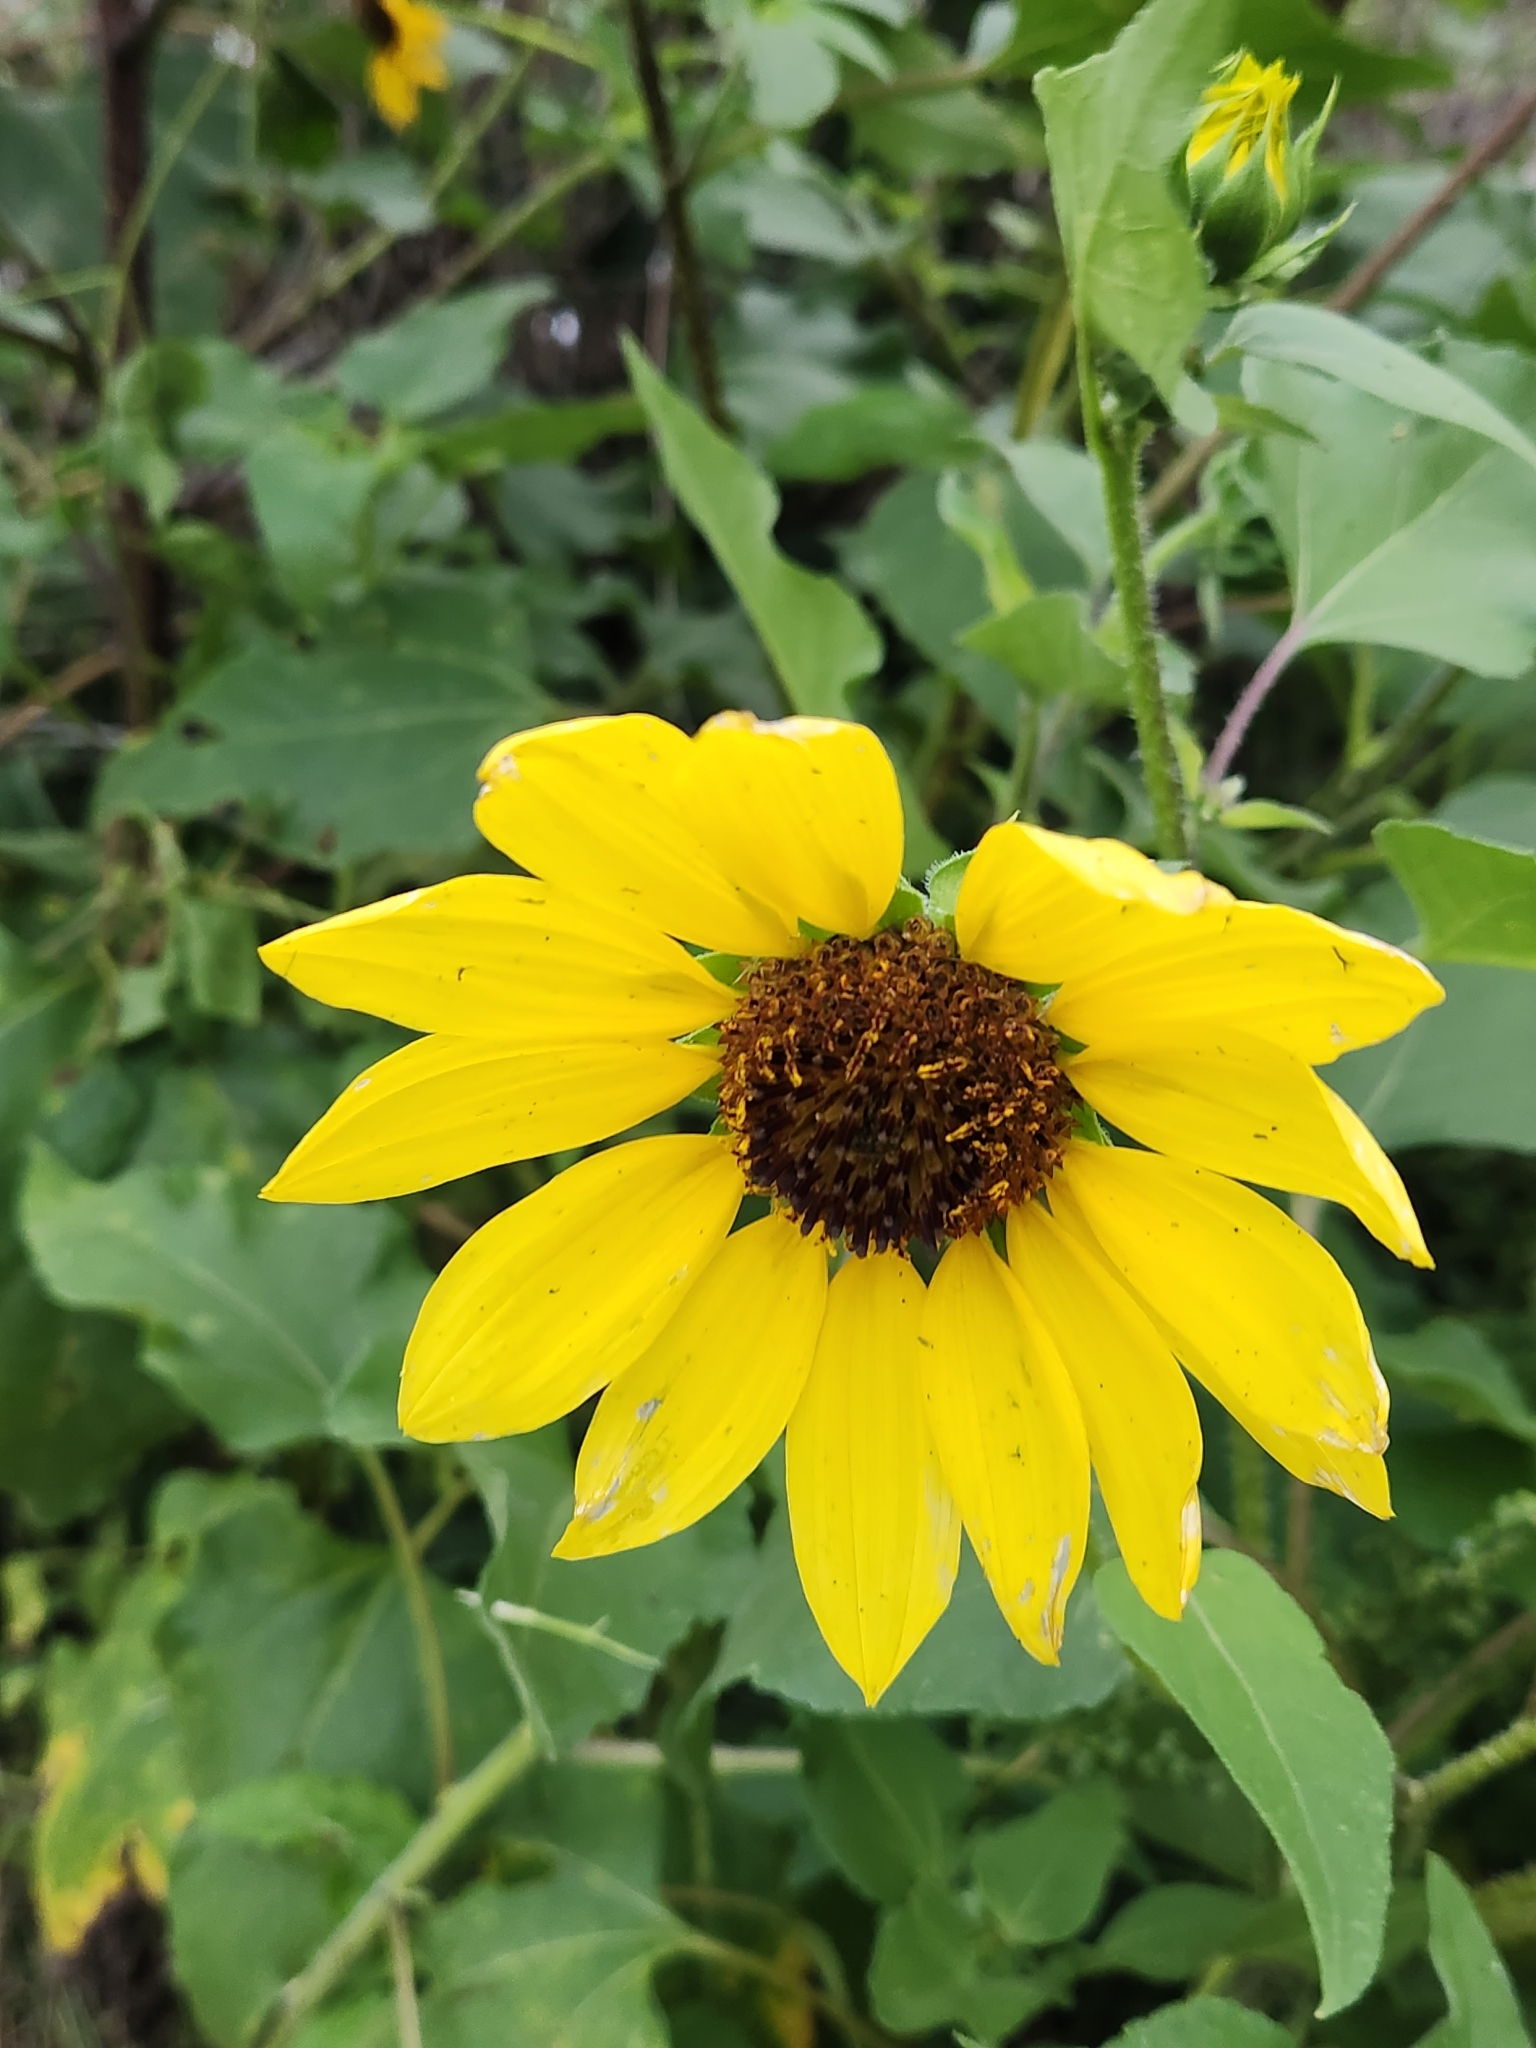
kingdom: Plantae
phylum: Tracheophyta
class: Magnoliopsida
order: Asterales
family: Asteraceae
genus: Helianthus
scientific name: Helianthus annuus
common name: Sunflower
